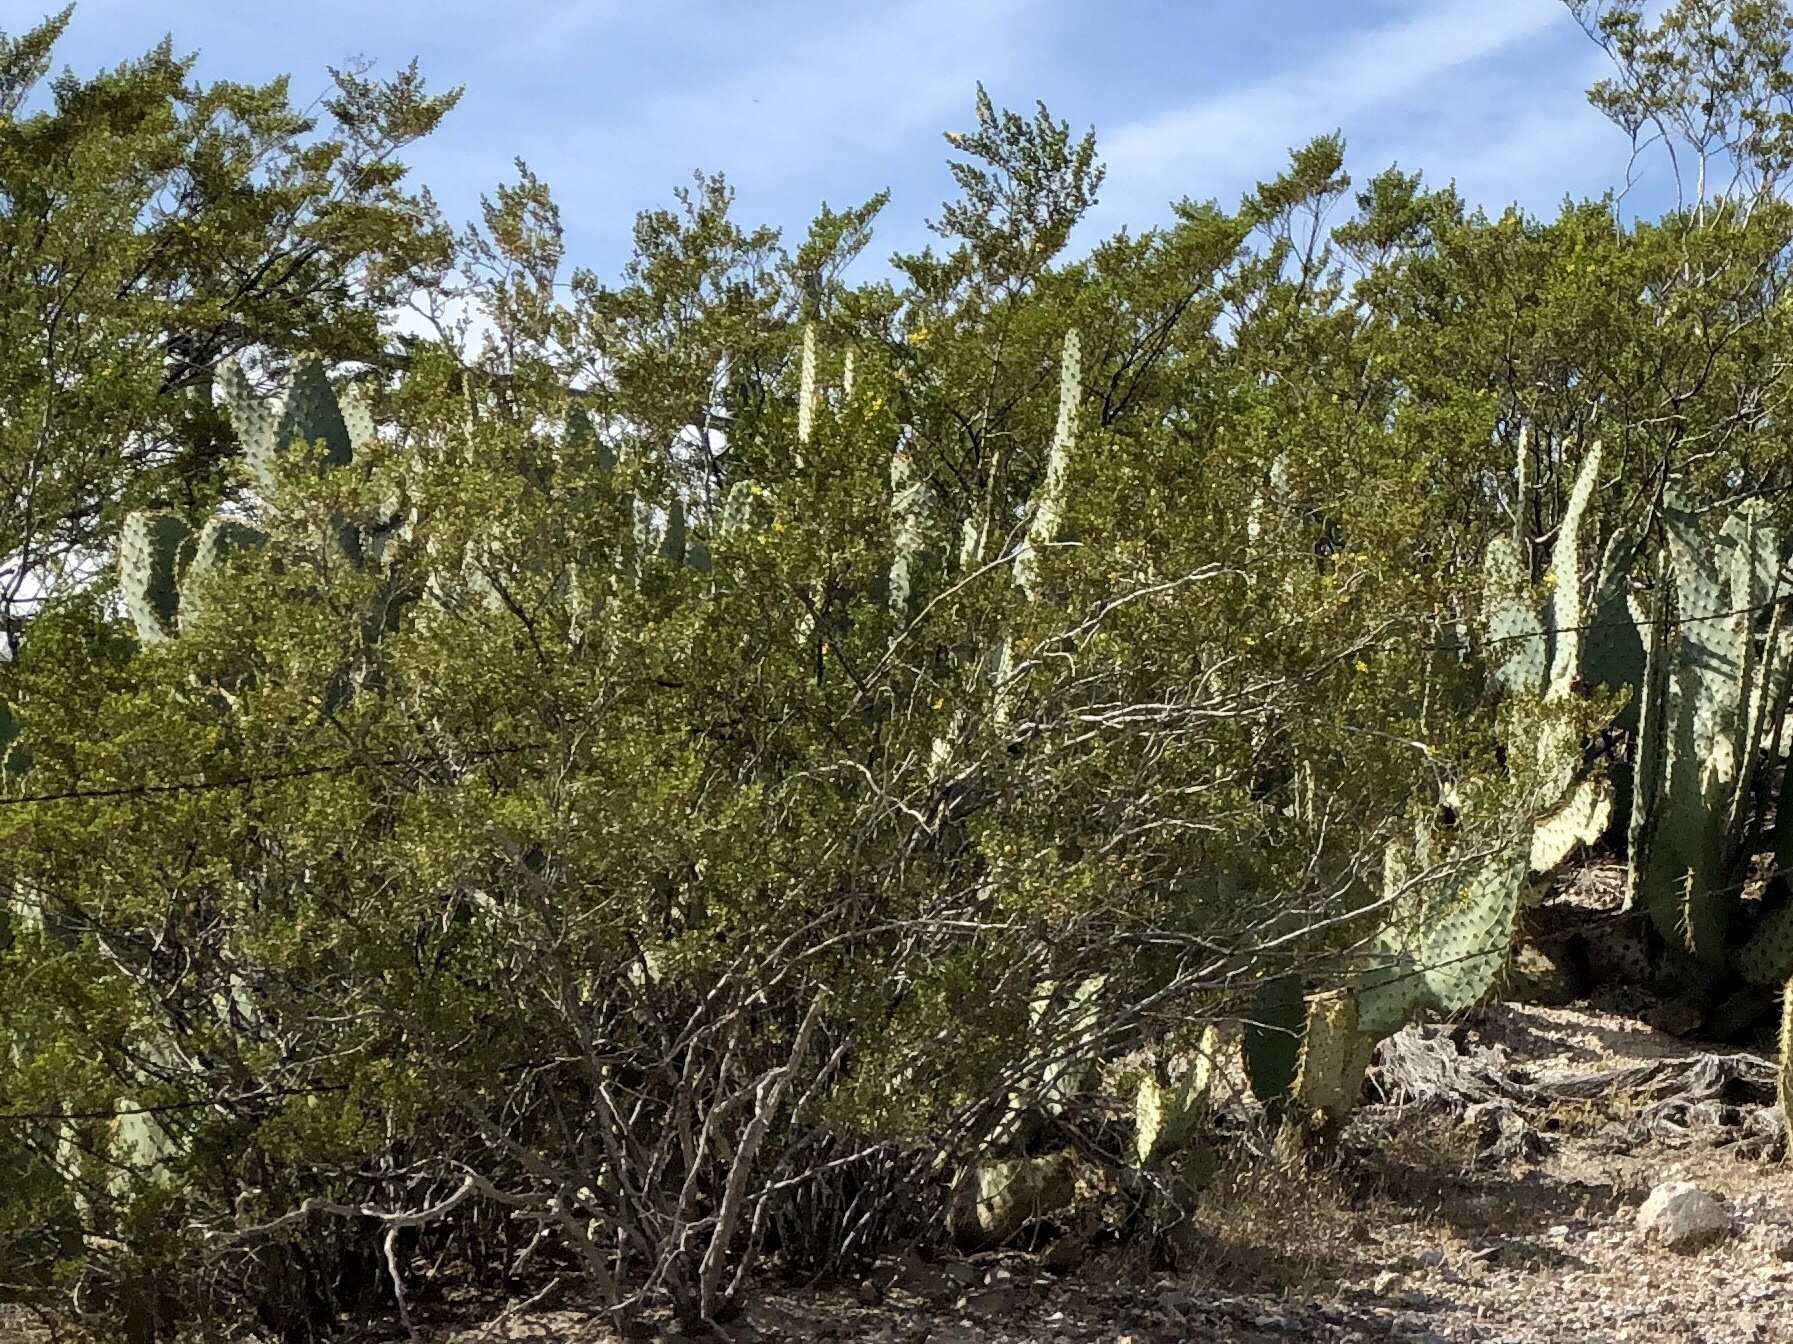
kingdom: Plantae
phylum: Tracheophyta
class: Magnoliopsida
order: Zygophyllales
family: Zygophyllaceae
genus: Larrea
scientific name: Larrea tridentata
